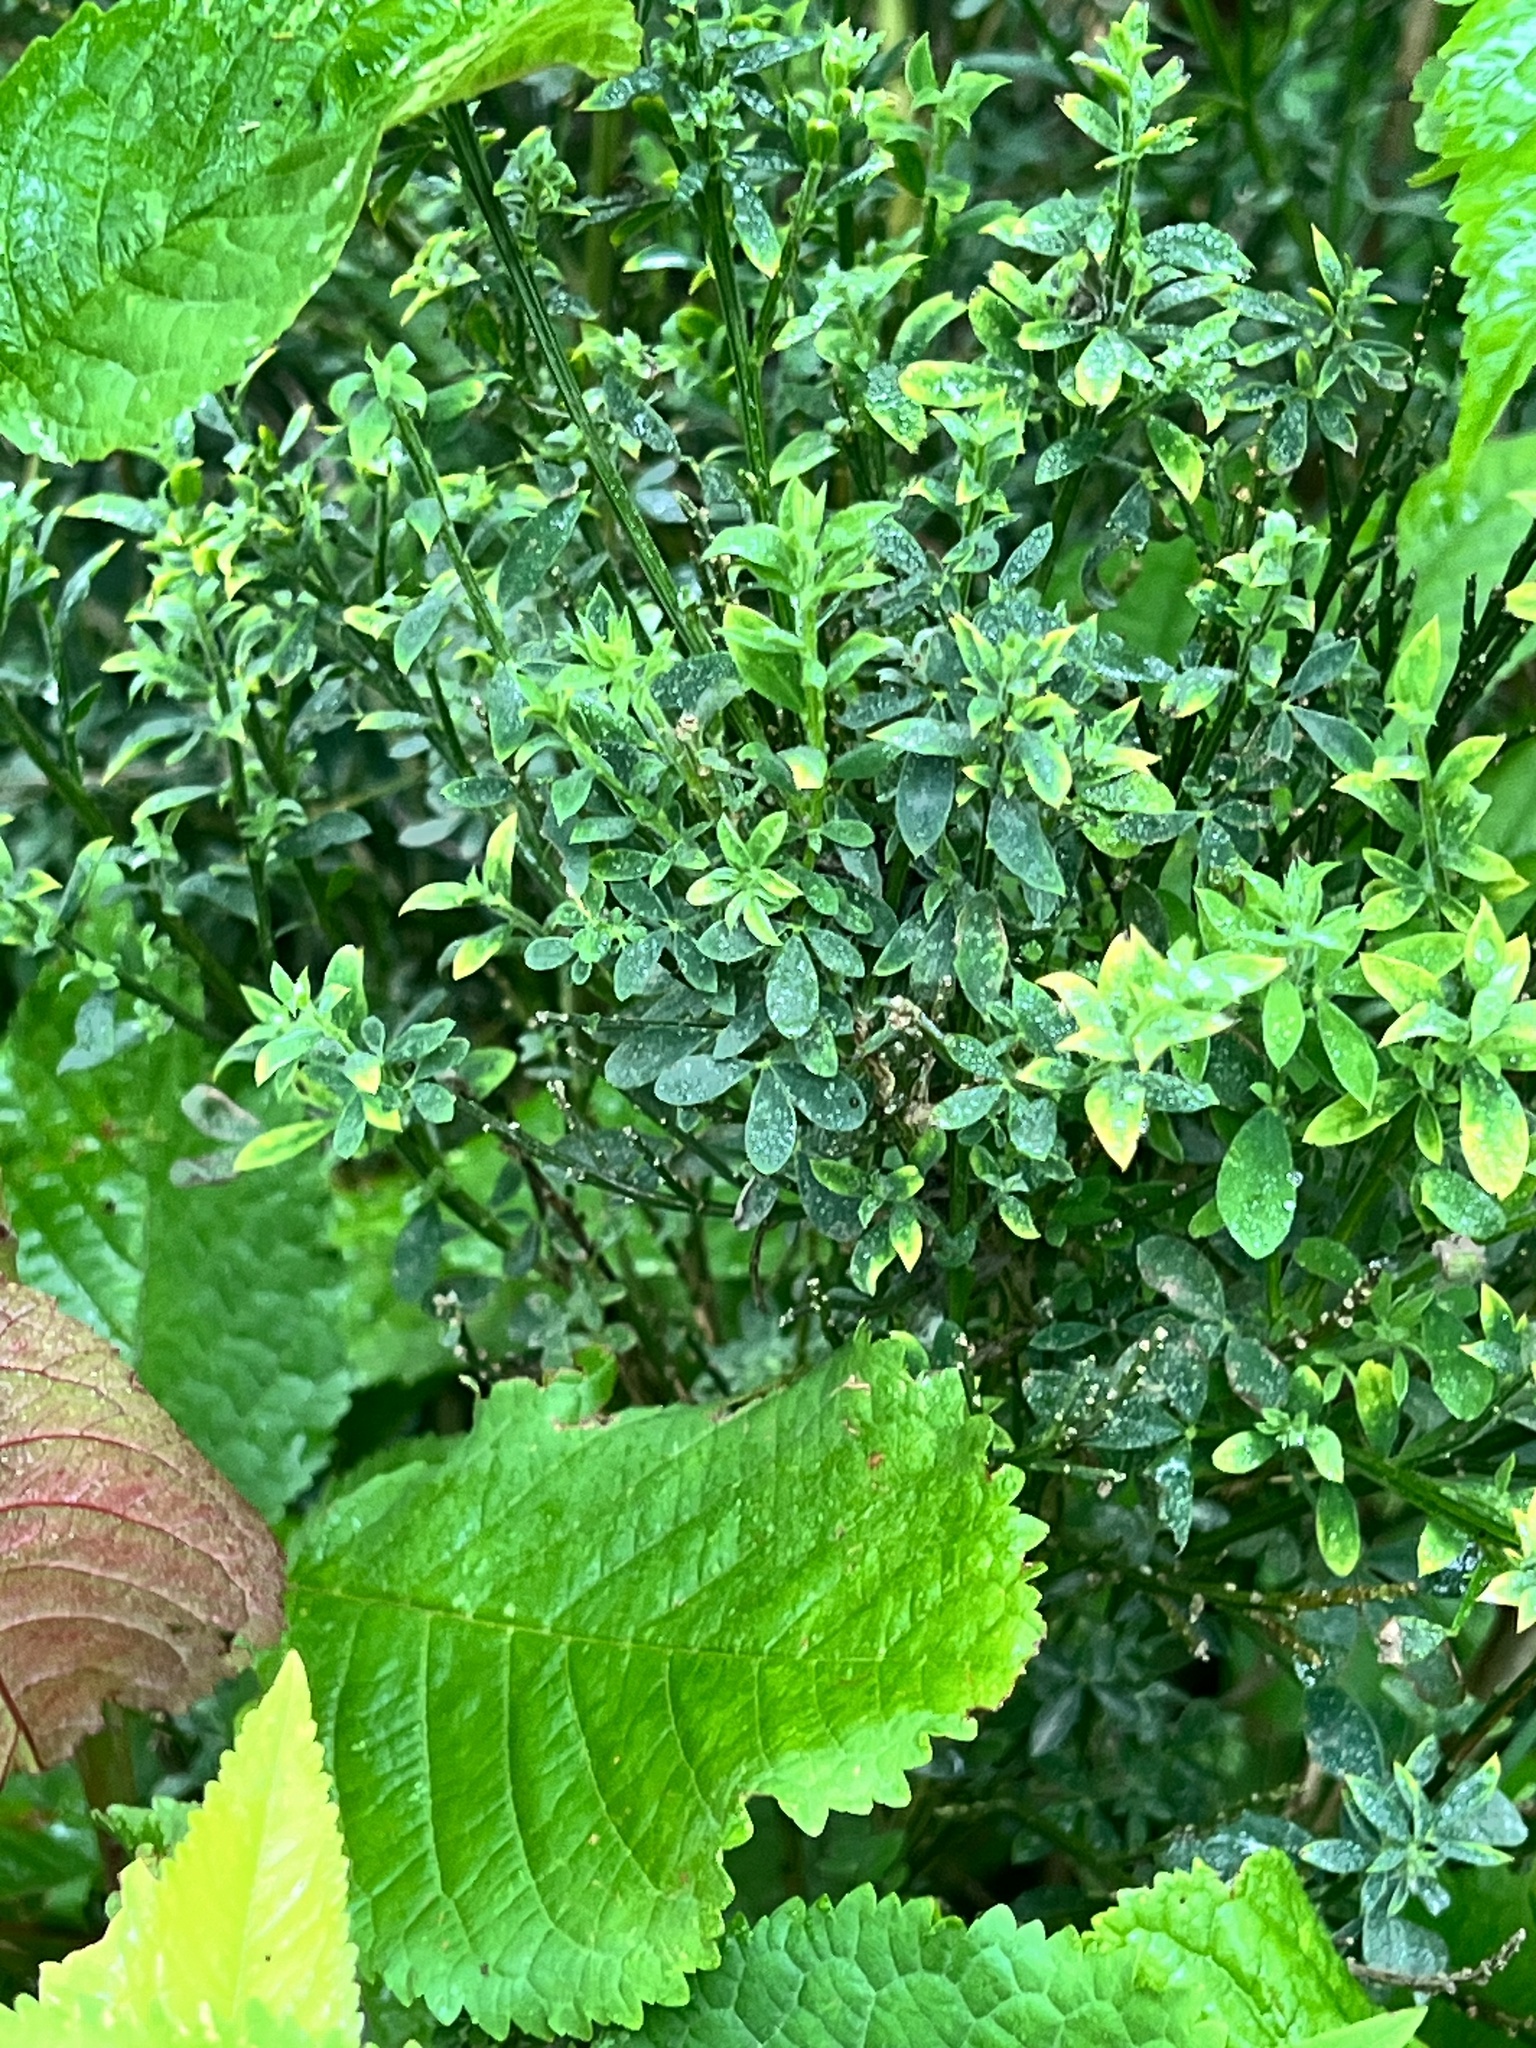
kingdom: Plantae
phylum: Tracheophyta
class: Magnoliopsida
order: Fabales
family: Fabaceae
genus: Genista
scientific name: Genista monspessulana
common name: Montpellier broom
